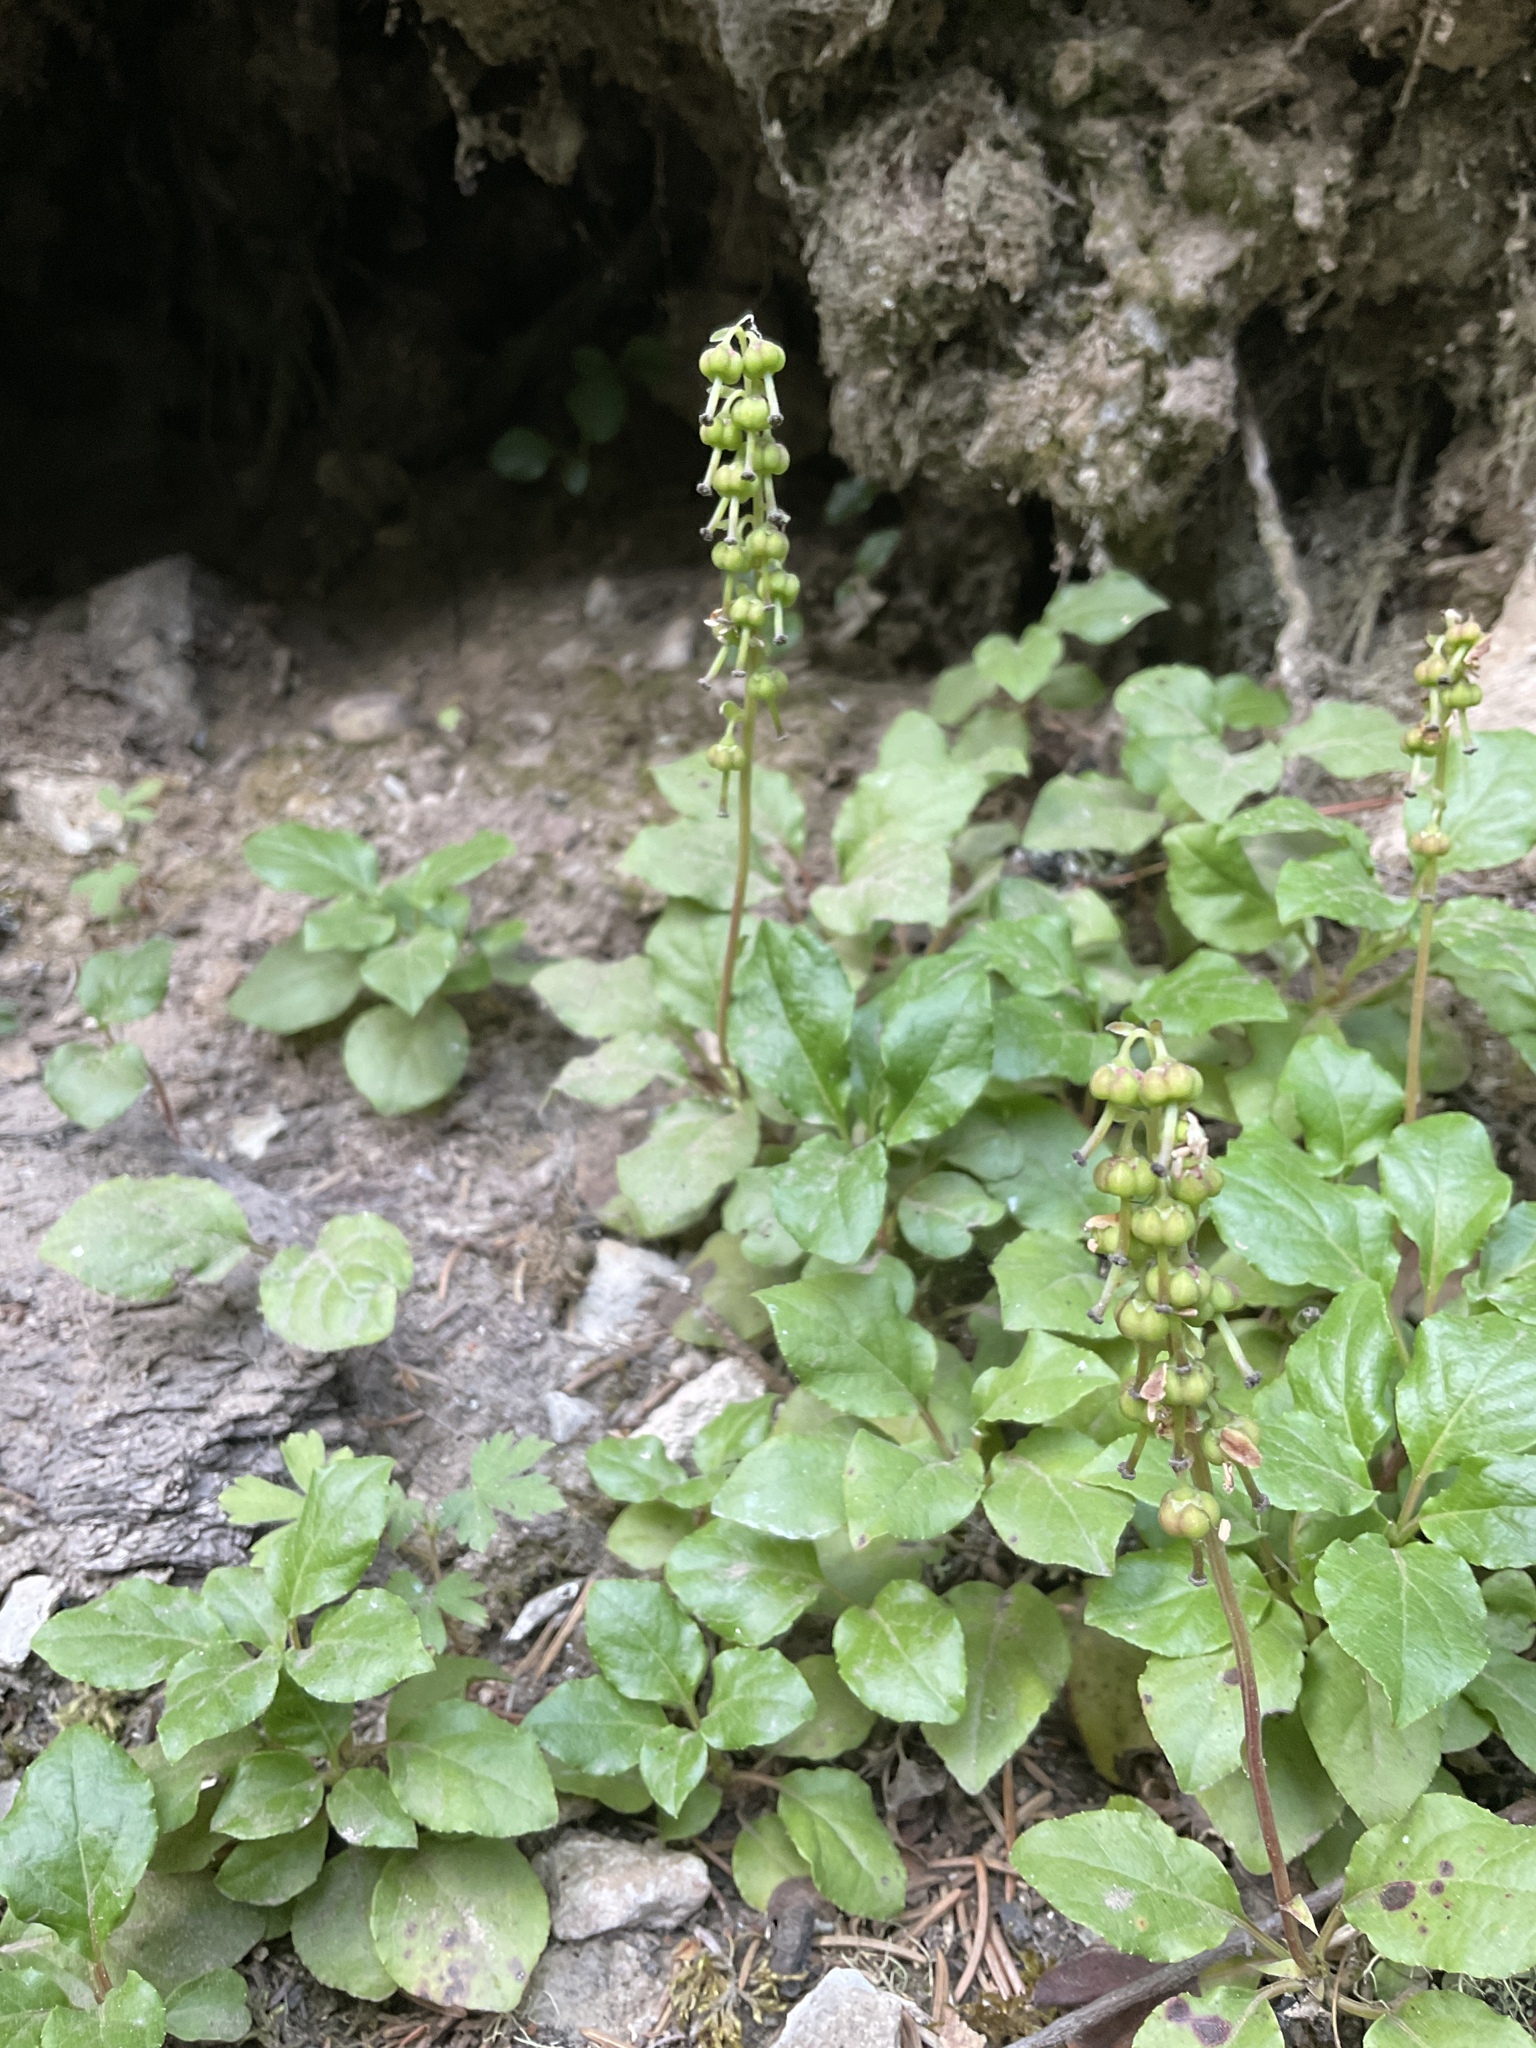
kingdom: Plantae
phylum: Tracheophyta
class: Magnoliopsida
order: Ericales
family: Ericaceae
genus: Orthilia
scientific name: Orthilia secunda
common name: One-sided orthilia
